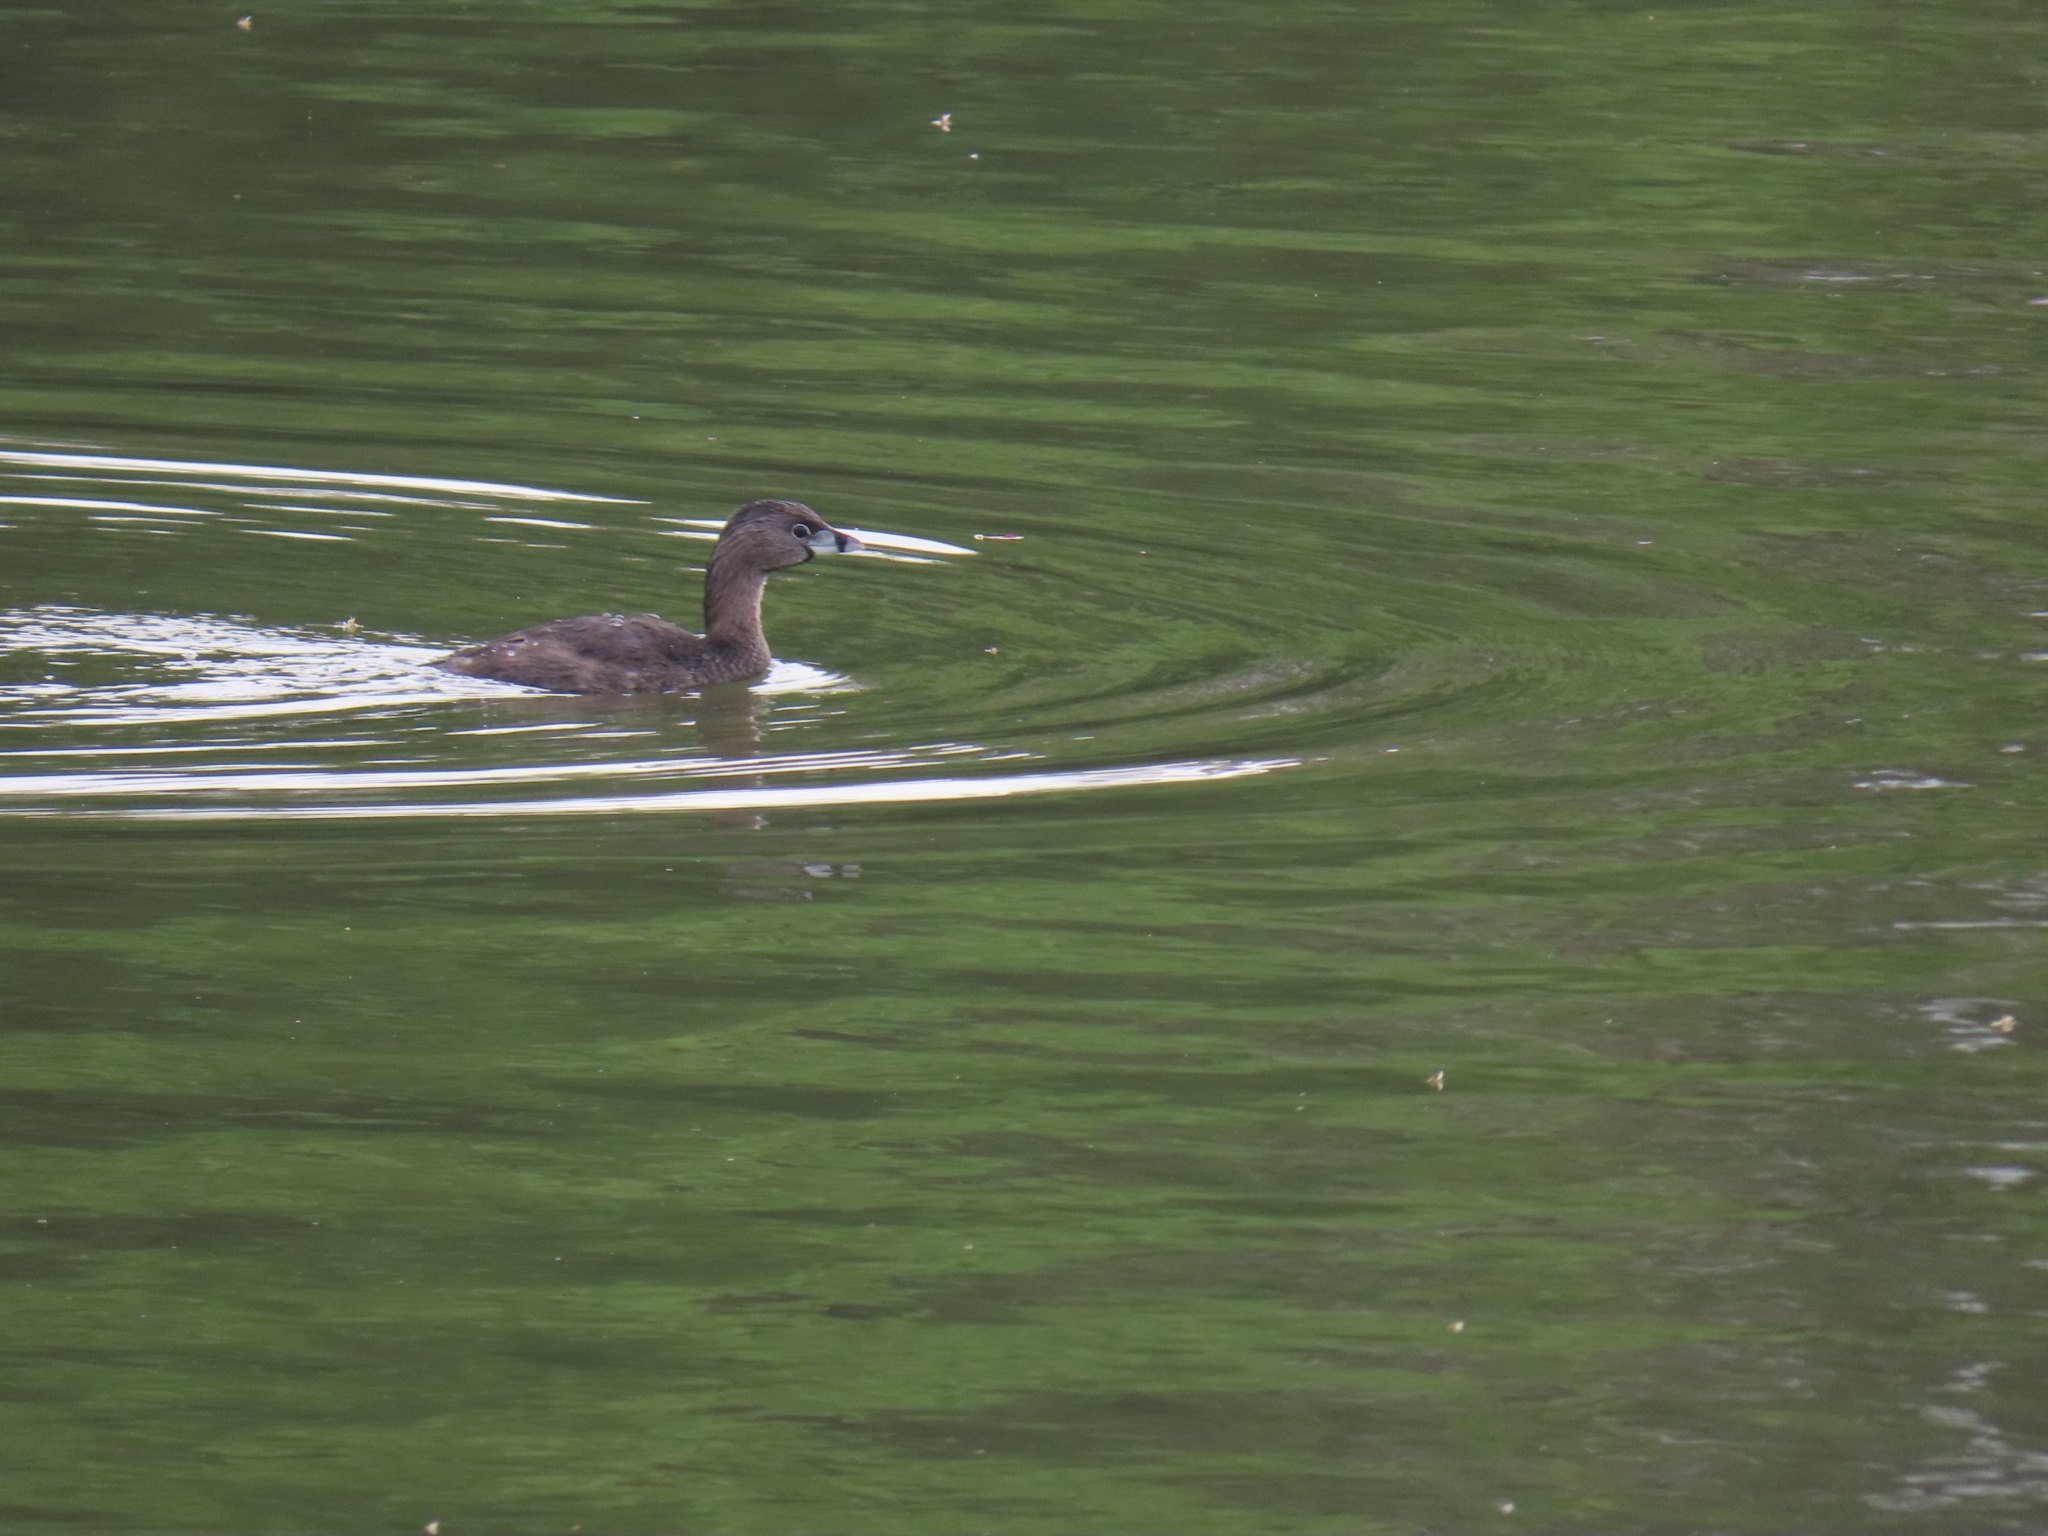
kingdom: Animalia
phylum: Chordata
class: Aves
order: Podicipediformes
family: Podicipedidae
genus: Podilymbus
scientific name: Podilymbus podiceps
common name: Pied-billed grebe
